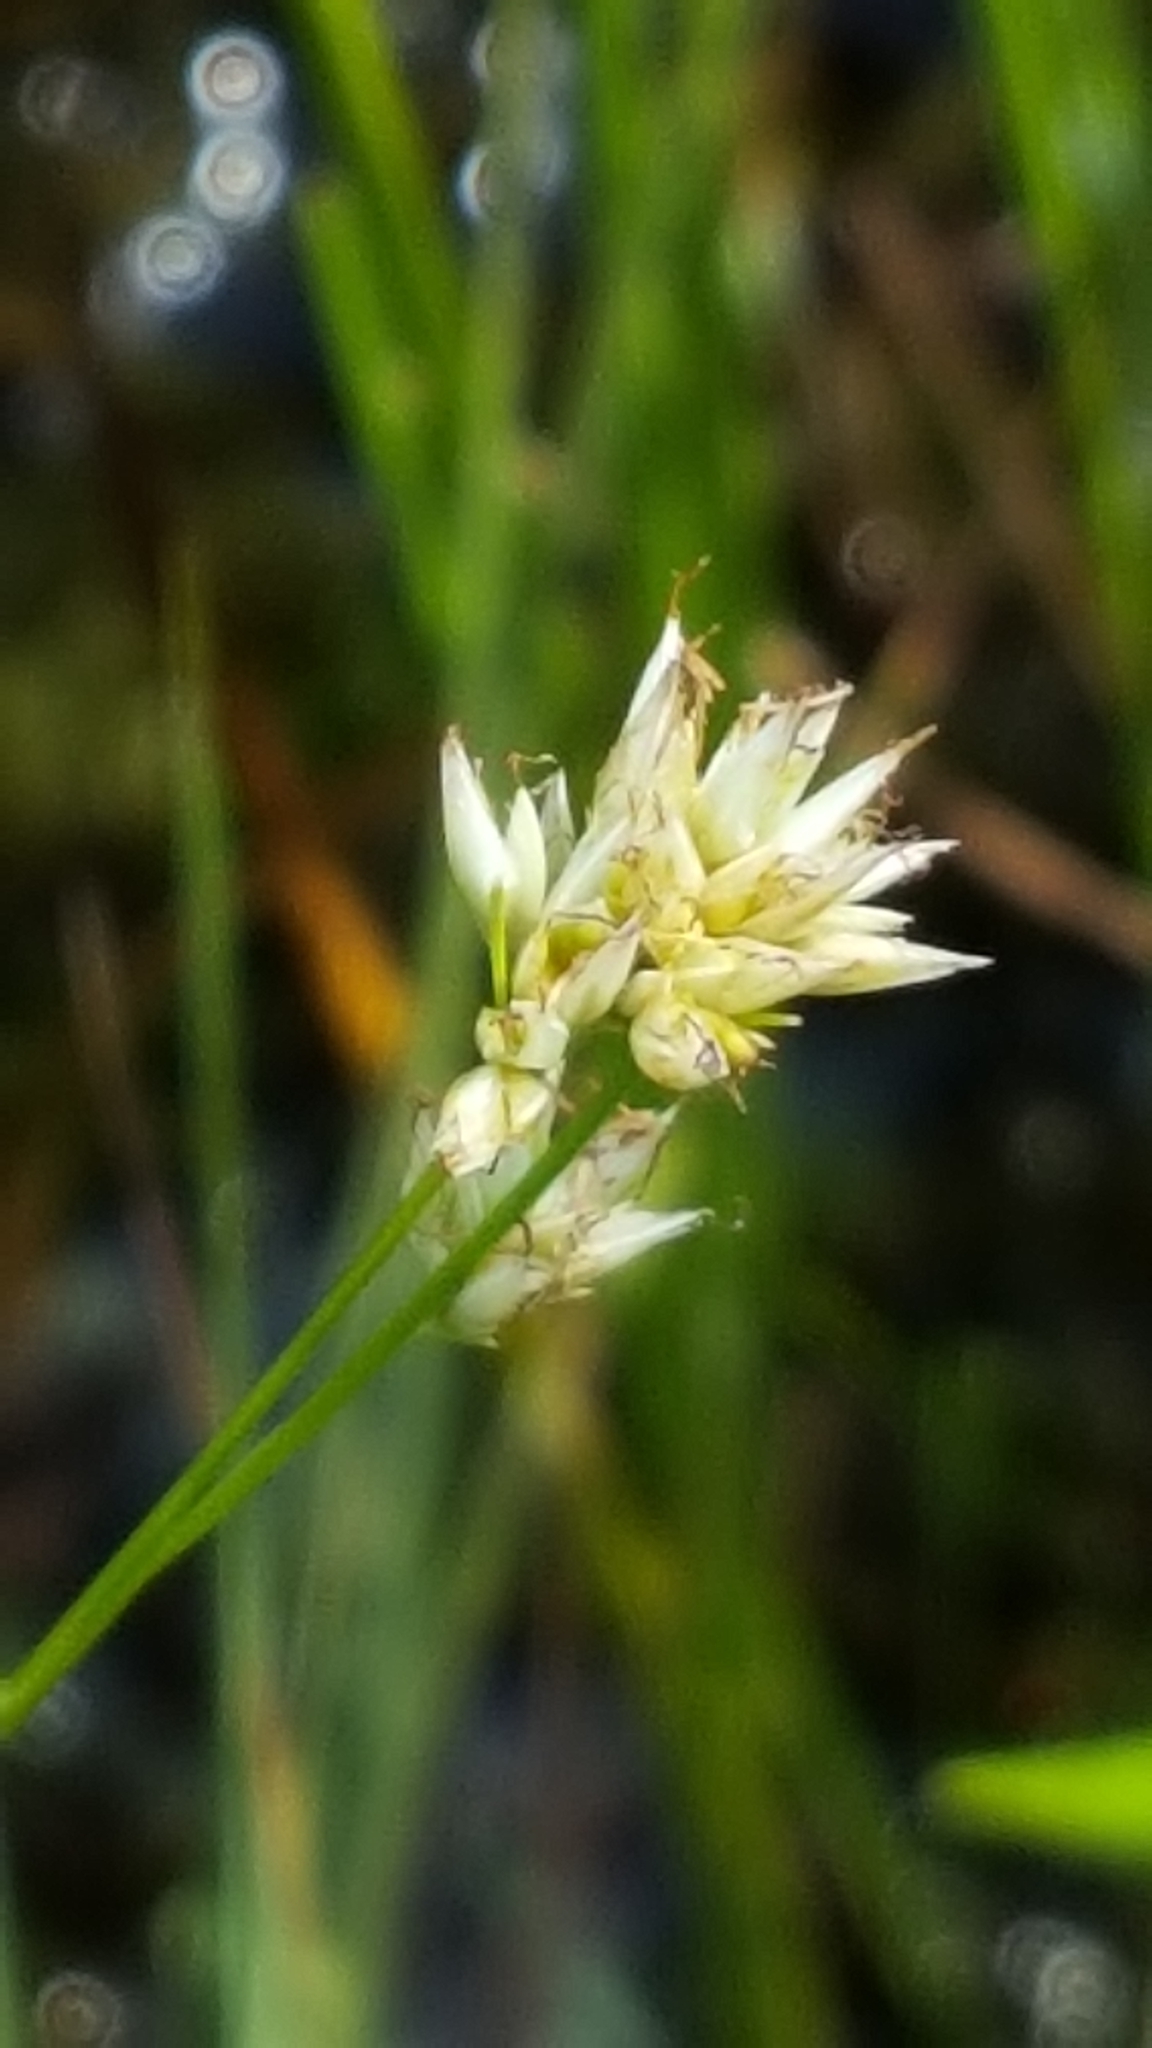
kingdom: Plantae
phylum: Tracheophyta
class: Liliopsida
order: Poales
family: Cyperaceae
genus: Rhynchospora
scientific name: Rhynchospora alba
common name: White beak-sedge
